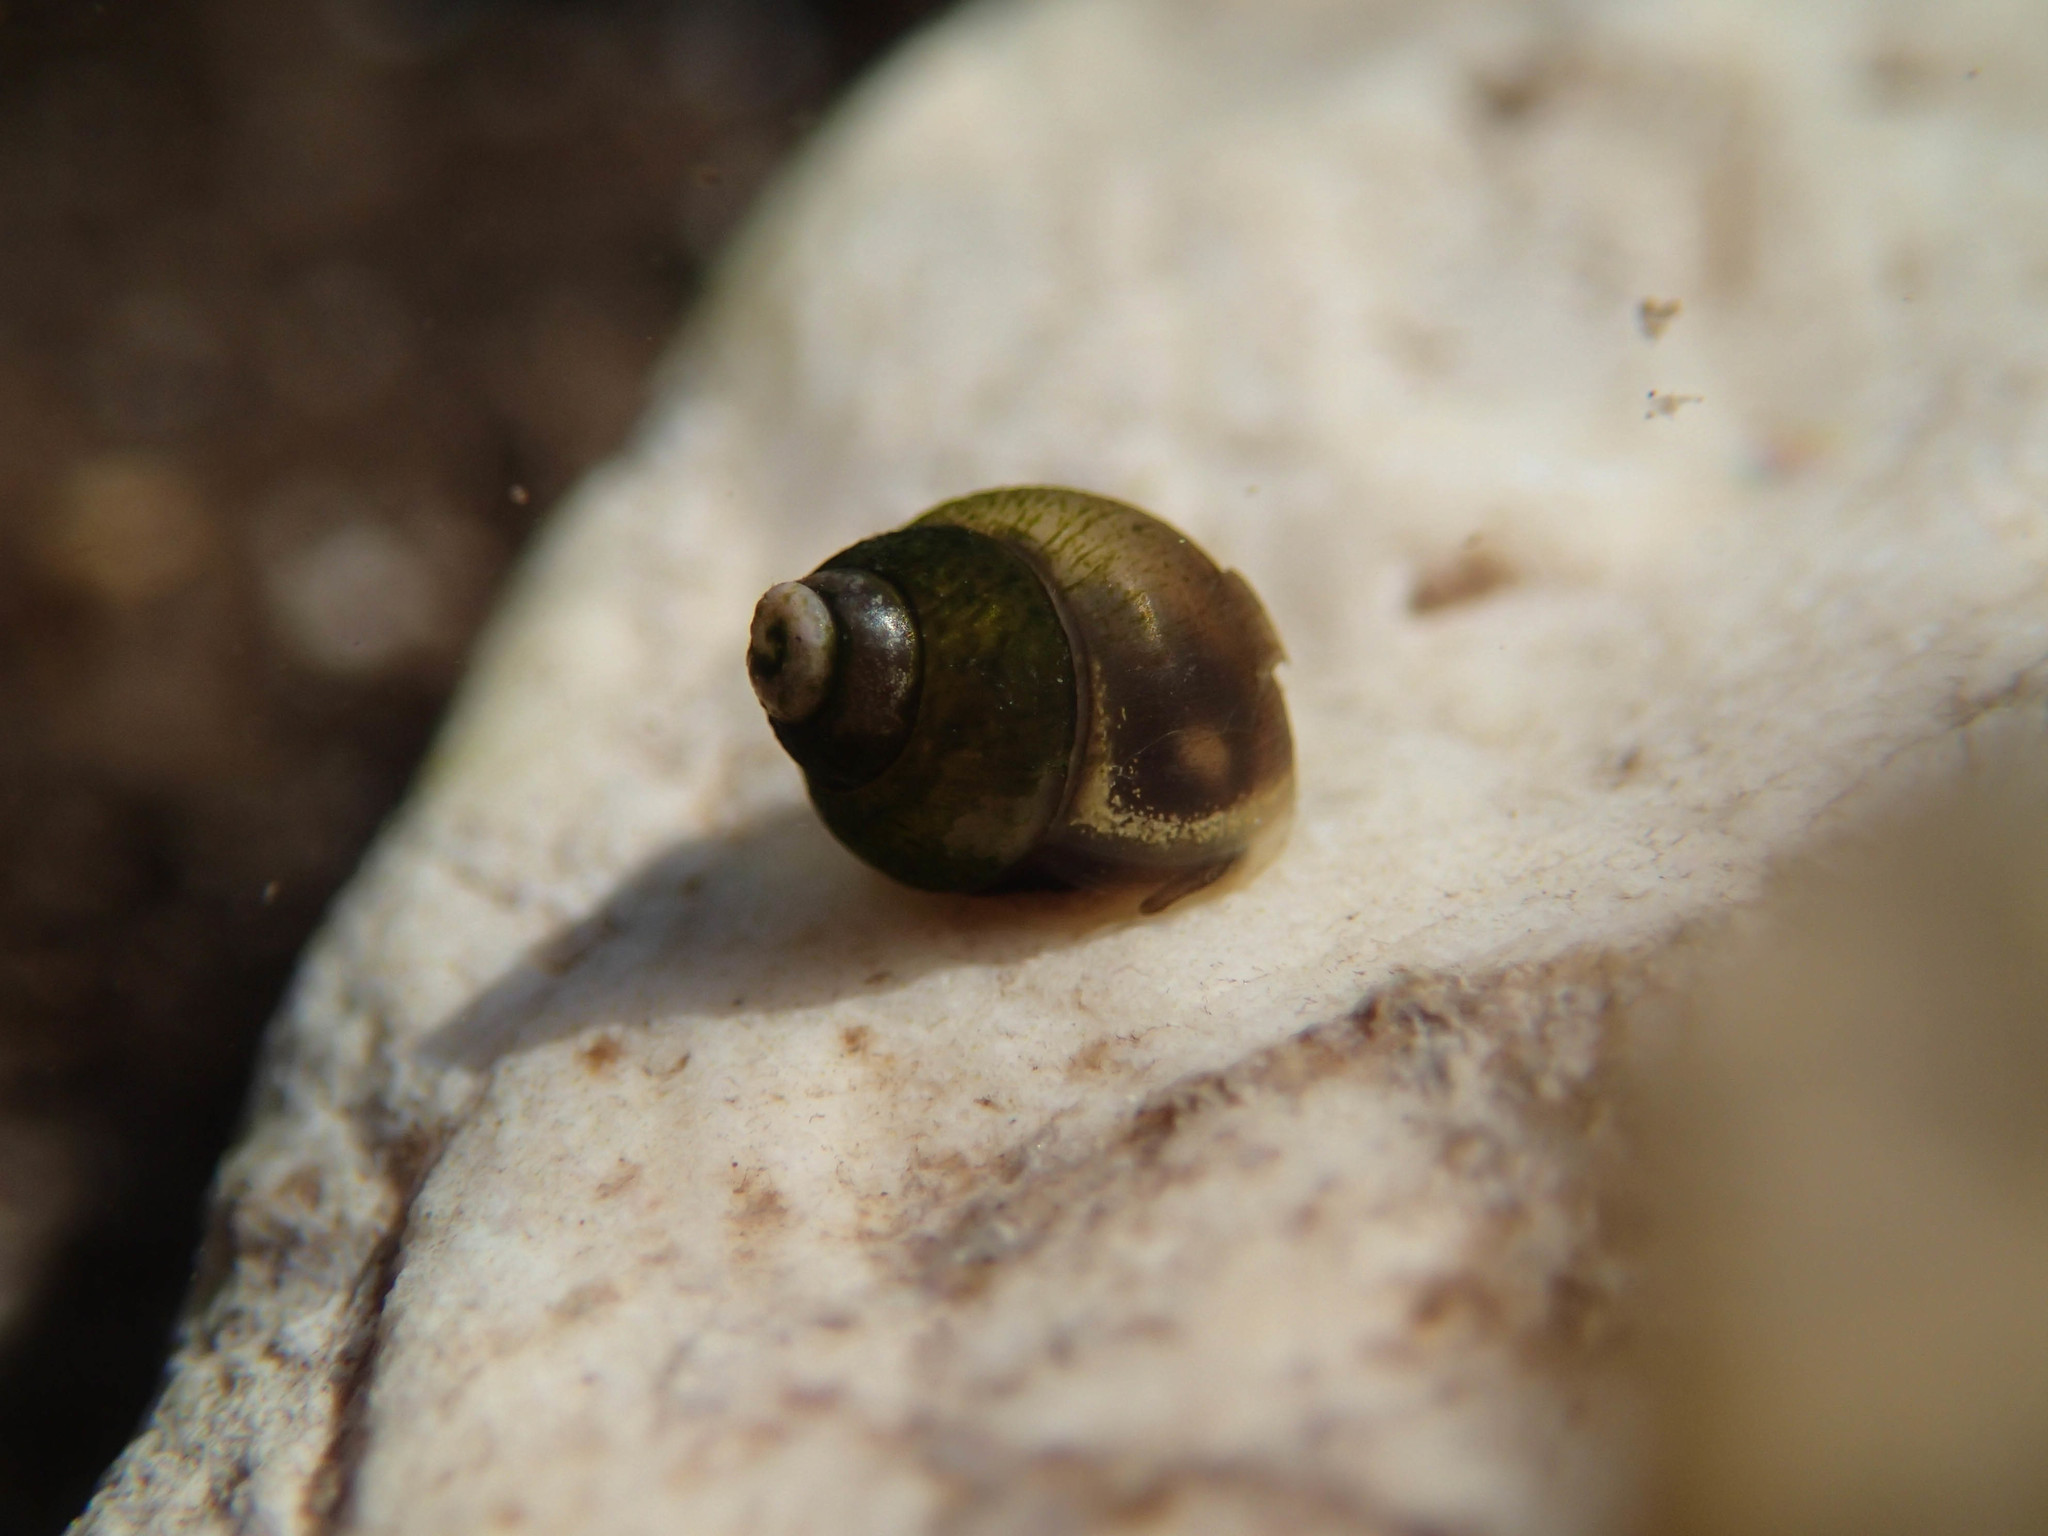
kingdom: Animalia
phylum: Mollusca
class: Gastropoda
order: Littorinimorpha
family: Emmericiidae
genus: Emmericia
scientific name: Emmericia patula
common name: Wide-lipped spring snail
